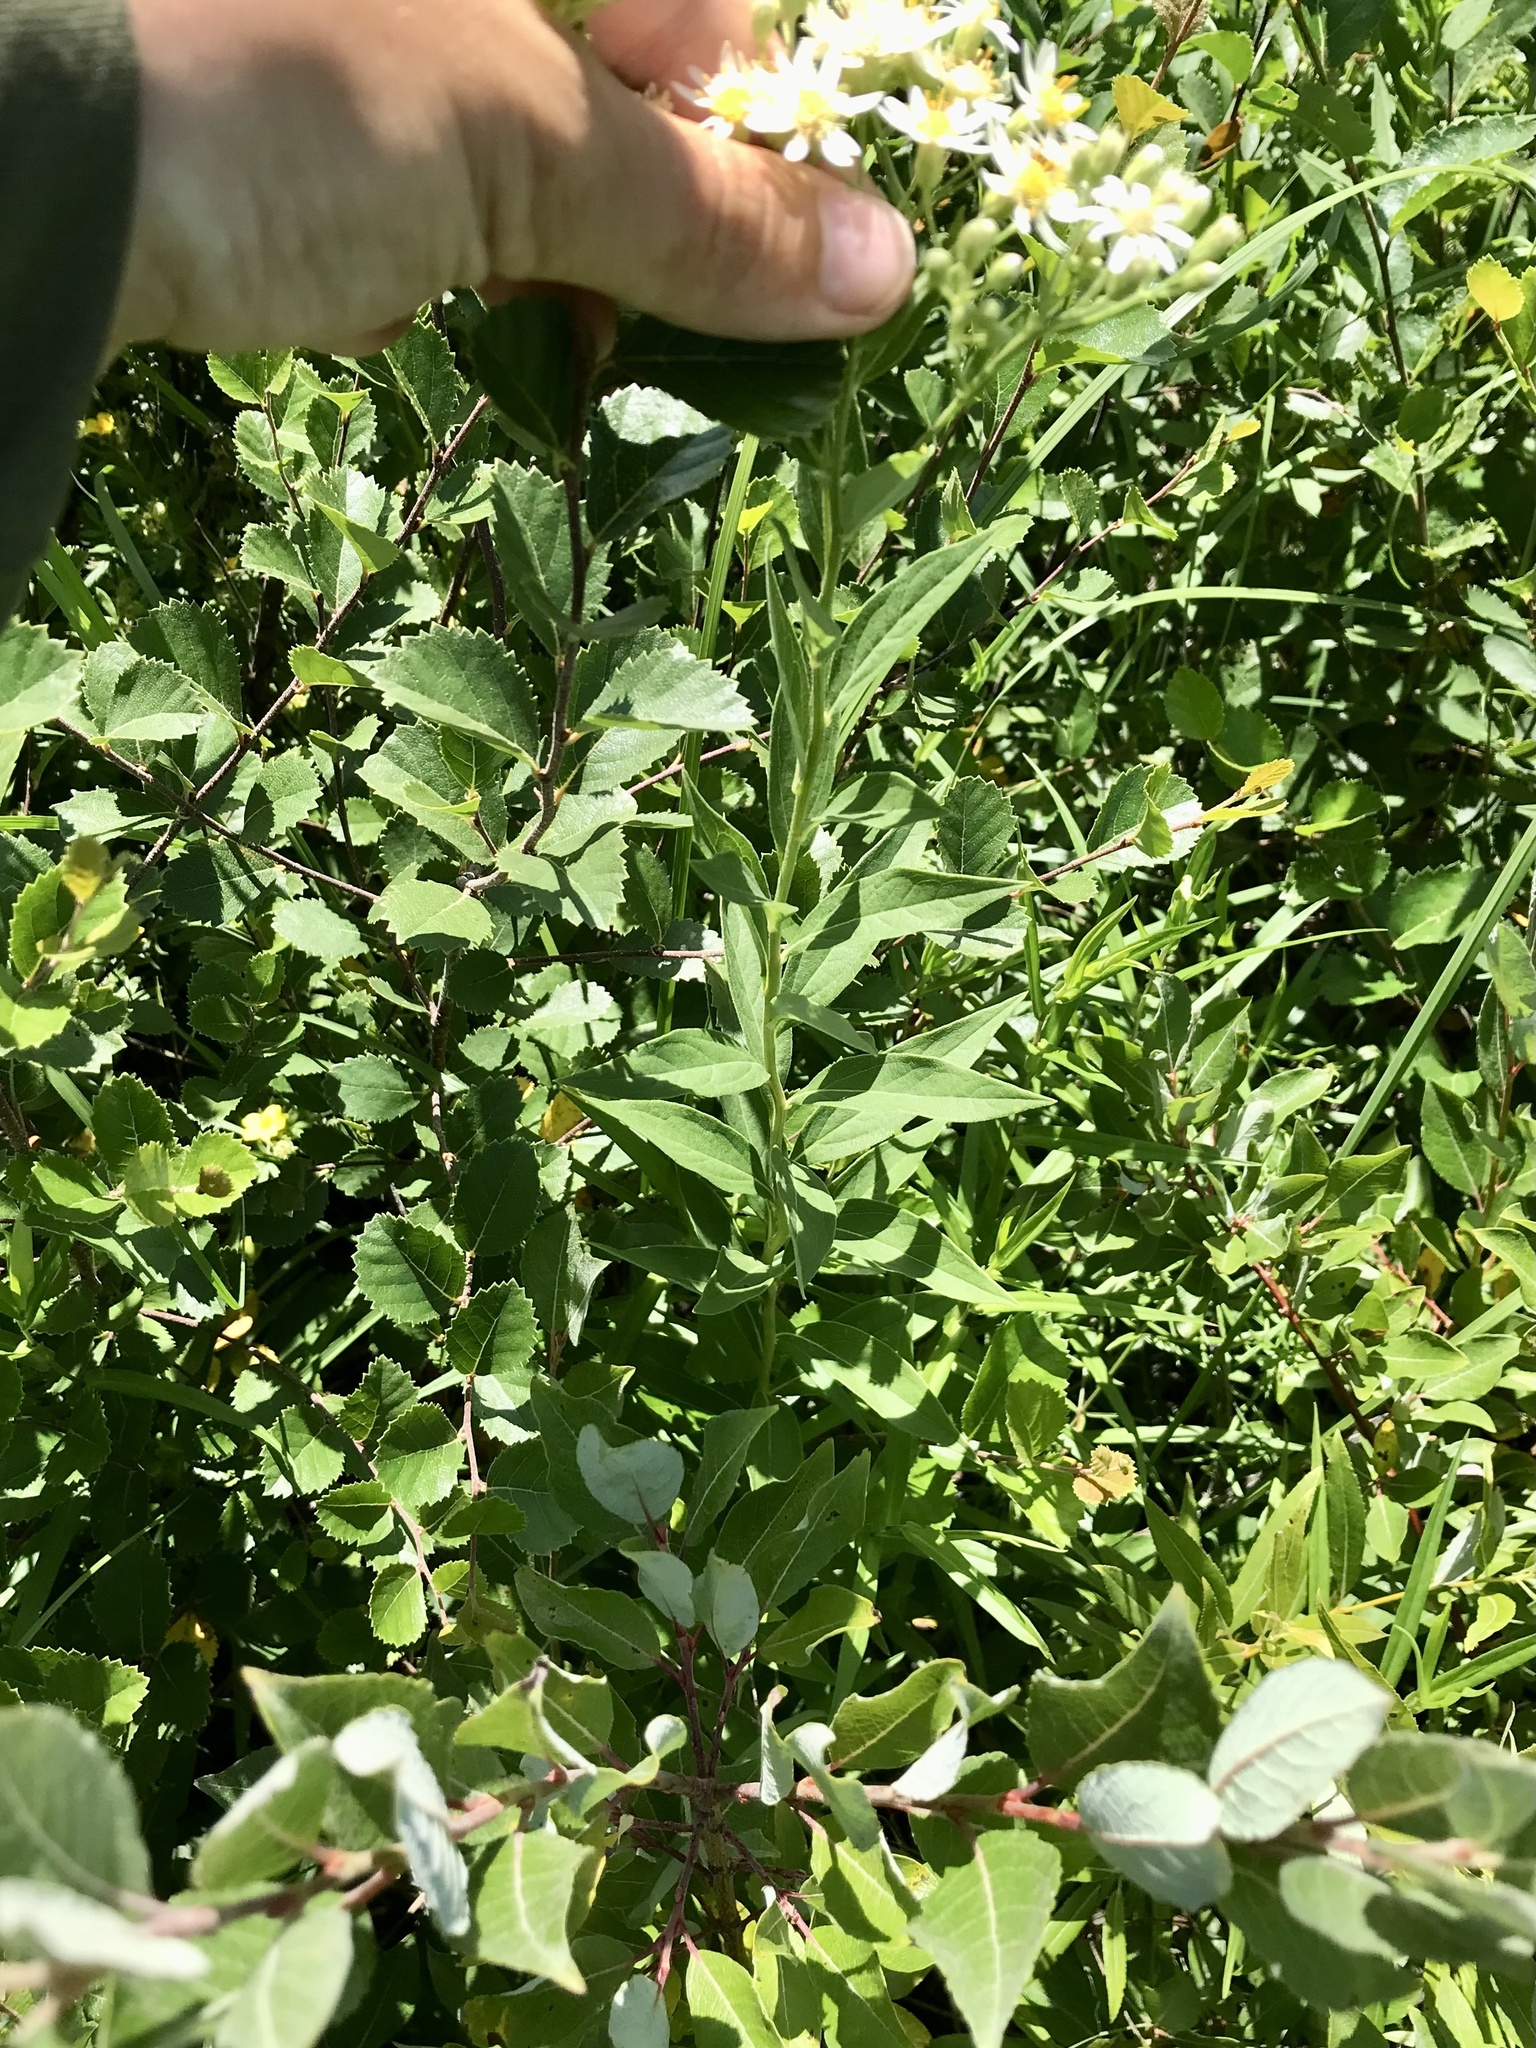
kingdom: Plantae
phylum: Tracheophyta
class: Magnoliopsida
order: Asterales
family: Asteraceae
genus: Doellingeria
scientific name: Doellingeria umbellata
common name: Flat-top white aster
